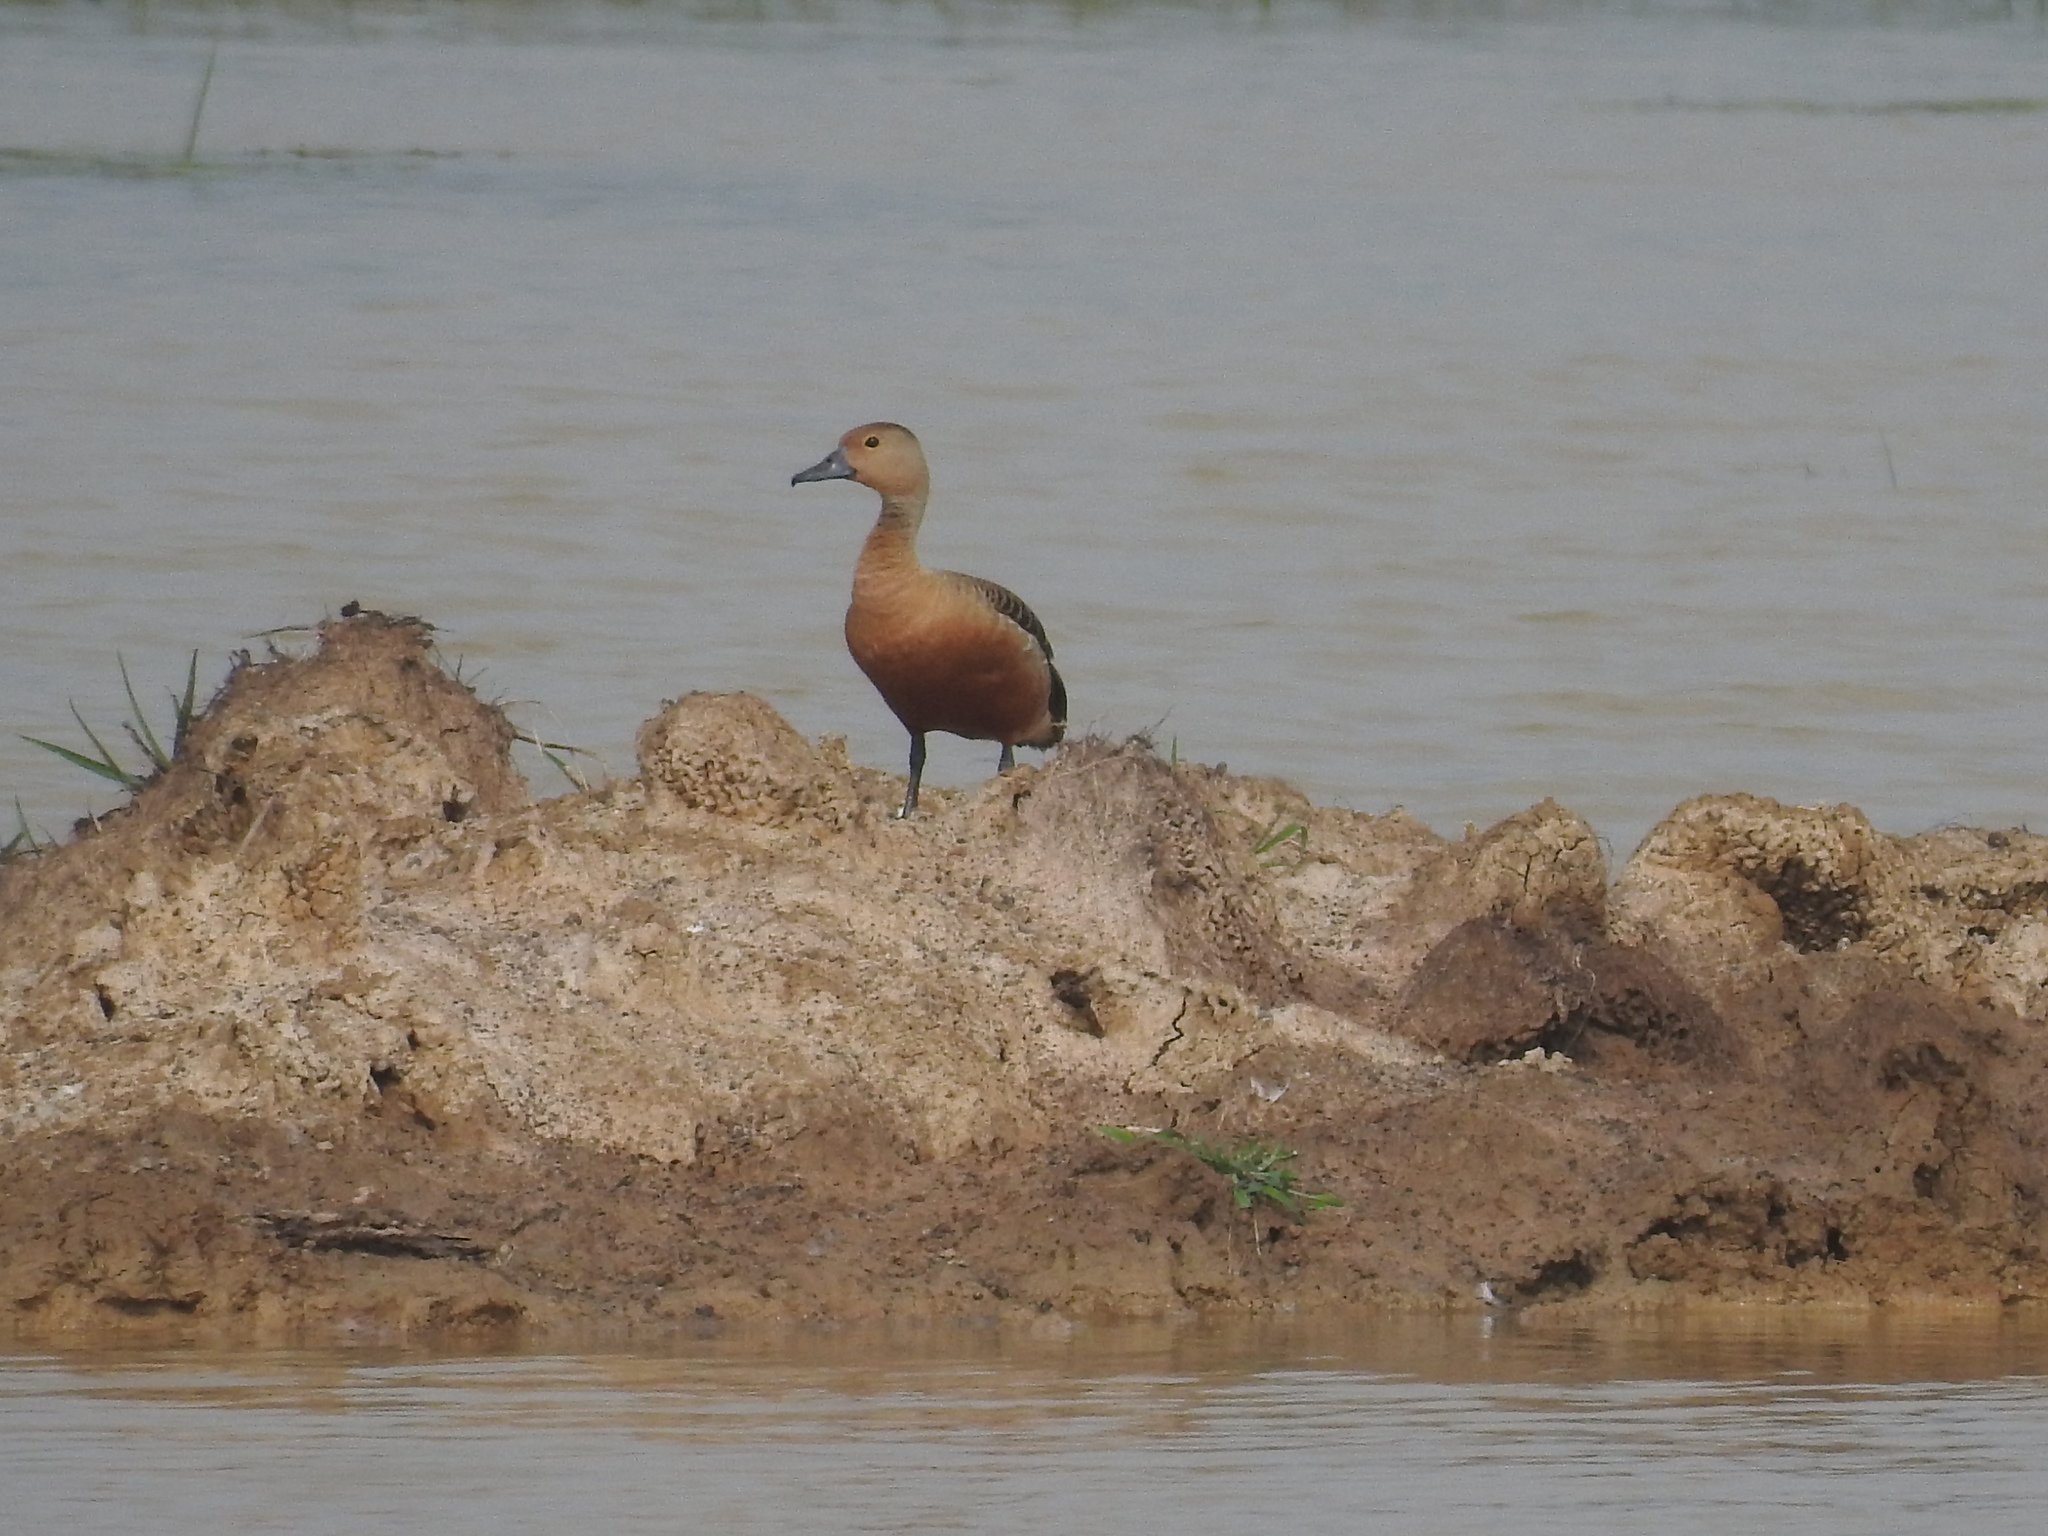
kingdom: Animalia
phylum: Chordata
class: Aves
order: Anseriformes
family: Anatidae
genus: Dendrocygna
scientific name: Dendrocygna javanica
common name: Lesser whistling-duck
